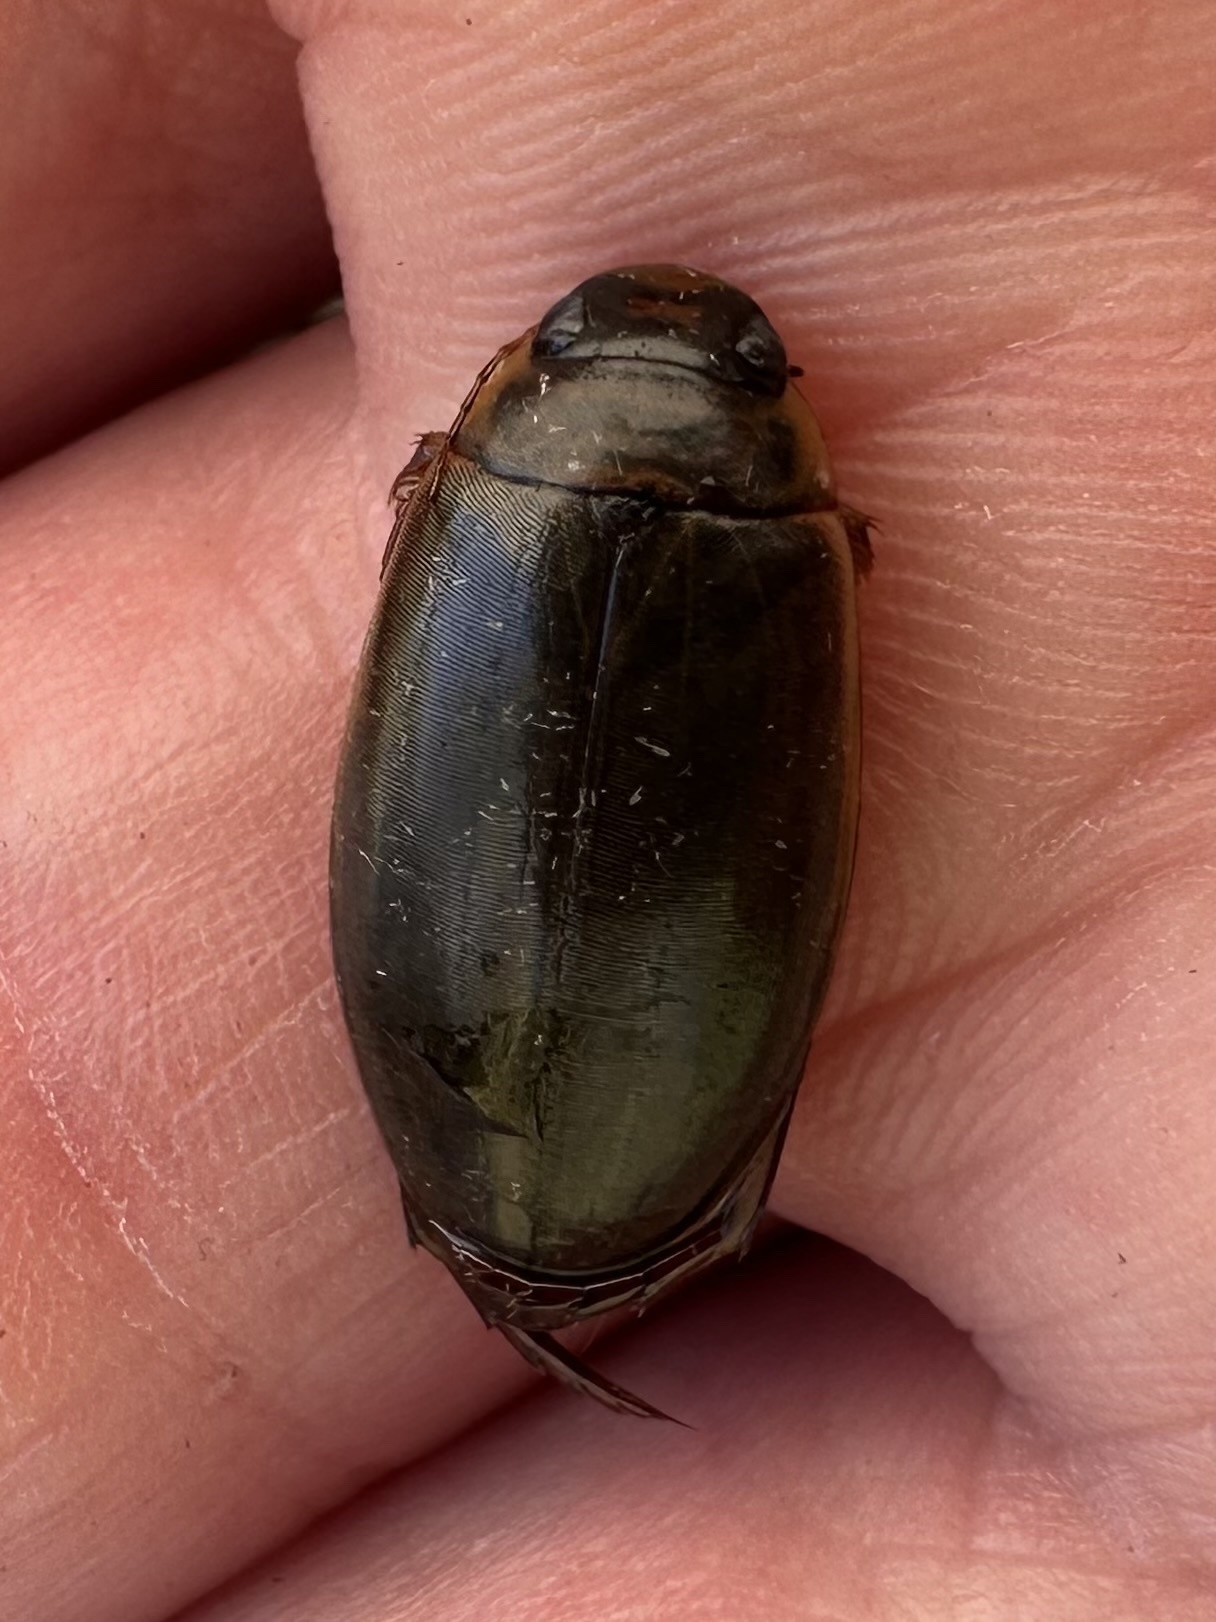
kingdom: Animalia
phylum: Arthropoda
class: Insecta
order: Coleoptera
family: Dytiscidae
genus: Colymbetes
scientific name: Colymbetes sculptilis
